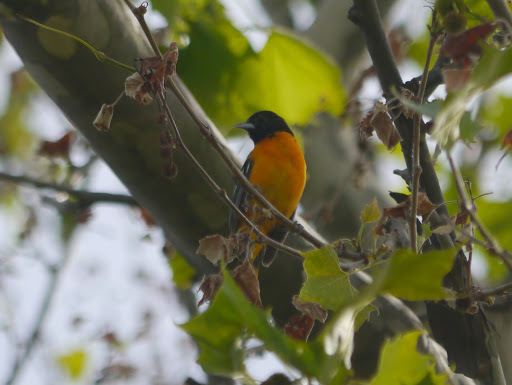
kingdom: Animalia
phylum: Chordata
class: Aves
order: Passeriformes
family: Icteridae
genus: Icterus
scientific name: Icterus galbula
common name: Baltimore oriole
